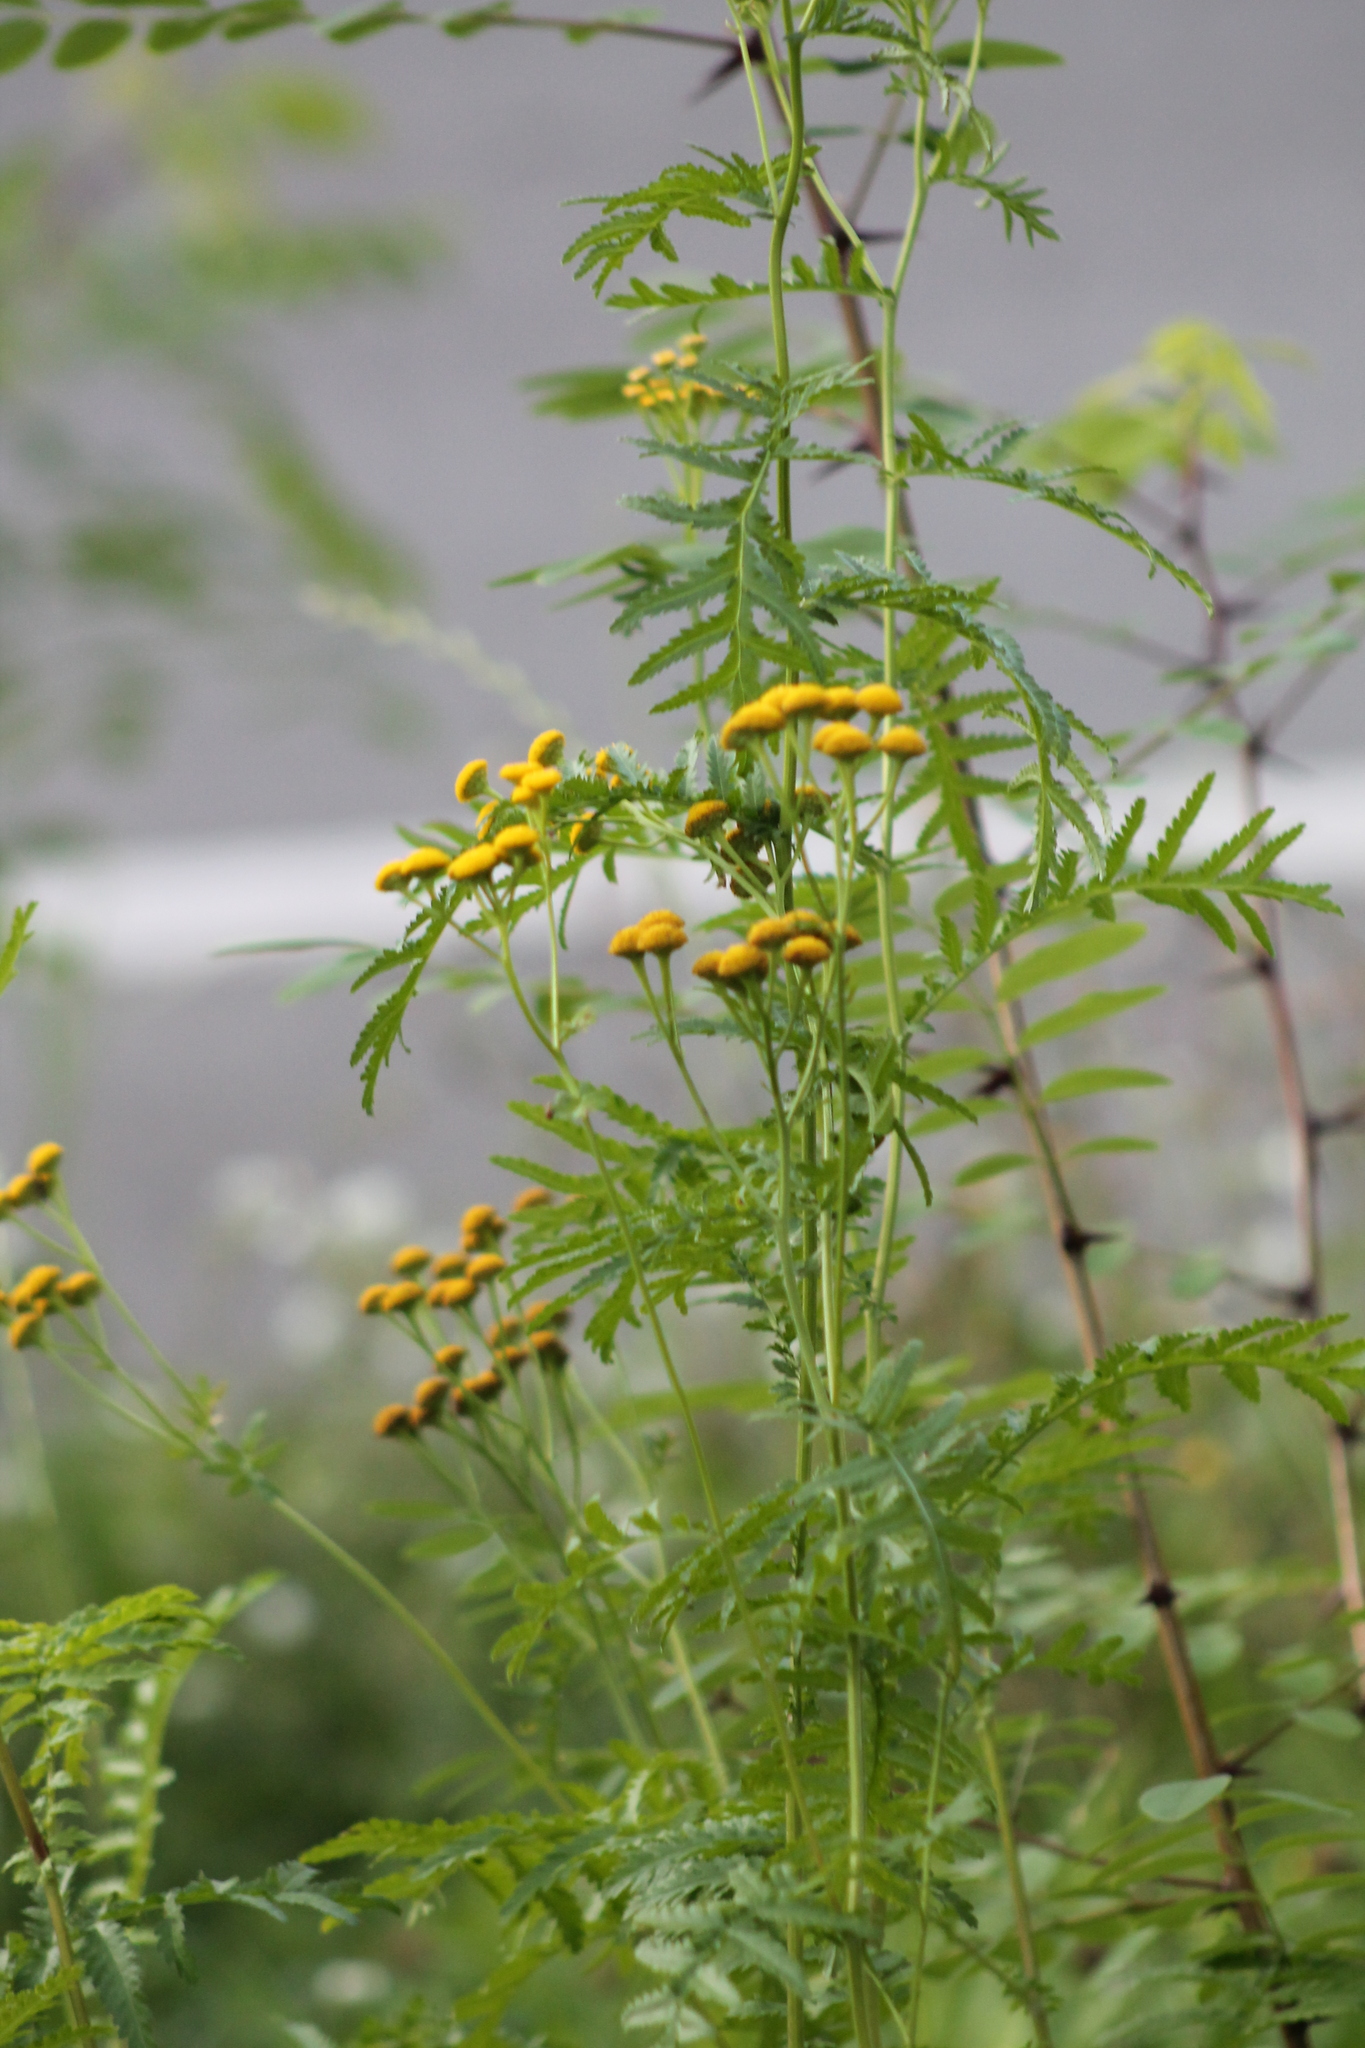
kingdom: Plantae
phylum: Tracheophyta
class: Magnoliopsida
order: Asterales
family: Asteraceae
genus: Tanacetum
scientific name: Tanacetum vulgare
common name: Common tansy
